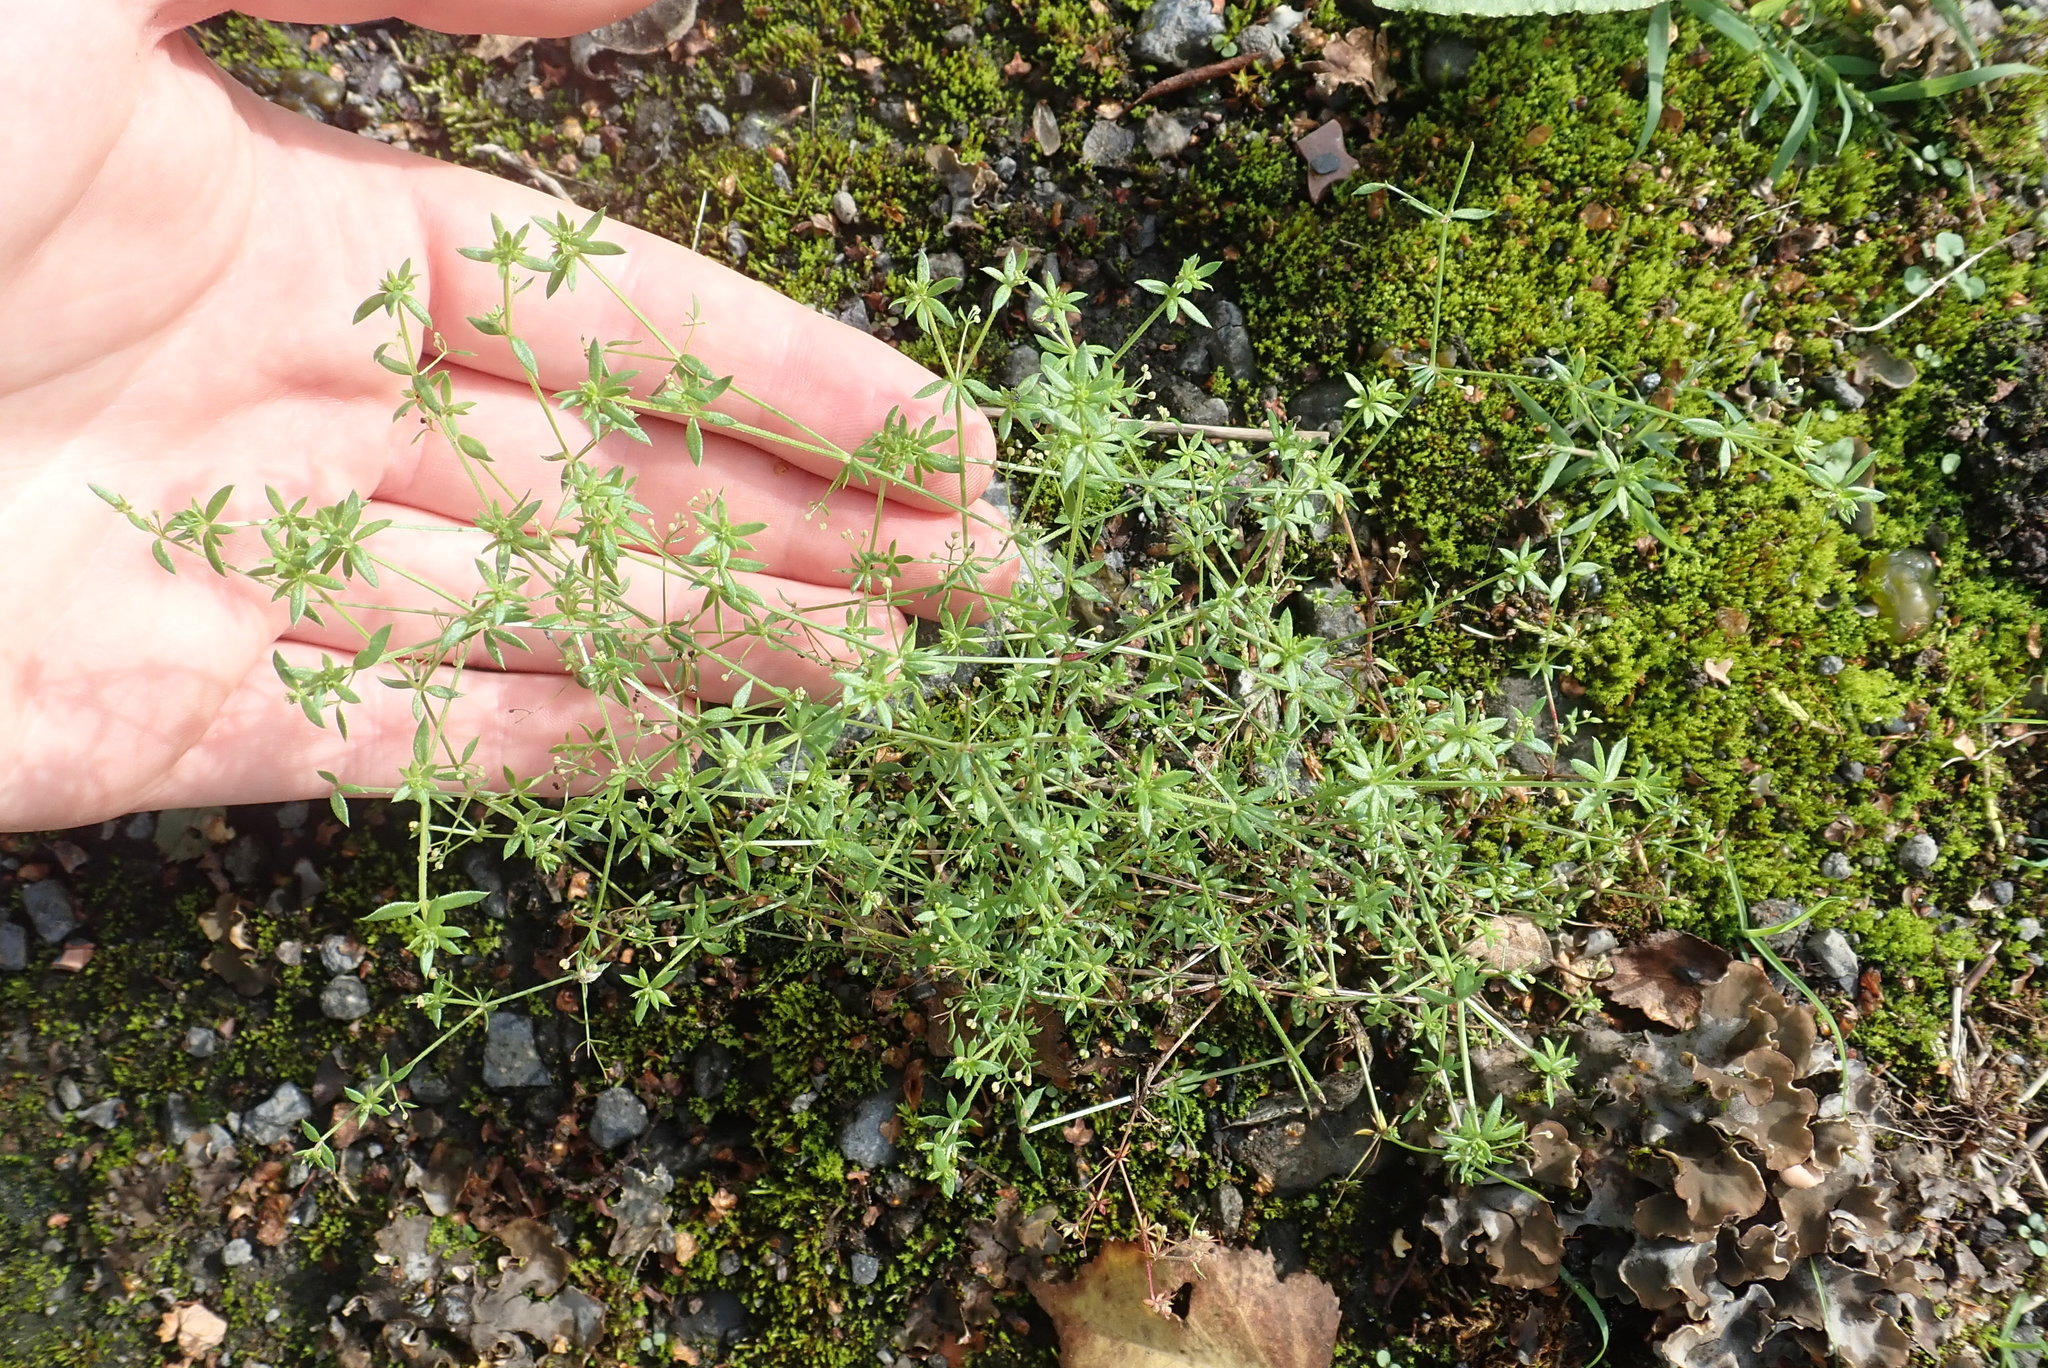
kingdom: Plantae
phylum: Tracheophyta
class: Magnoliopsida
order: Gentianales
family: Rubiaceae
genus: Galium
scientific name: Galium parisiense
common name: Wall bedstraw
